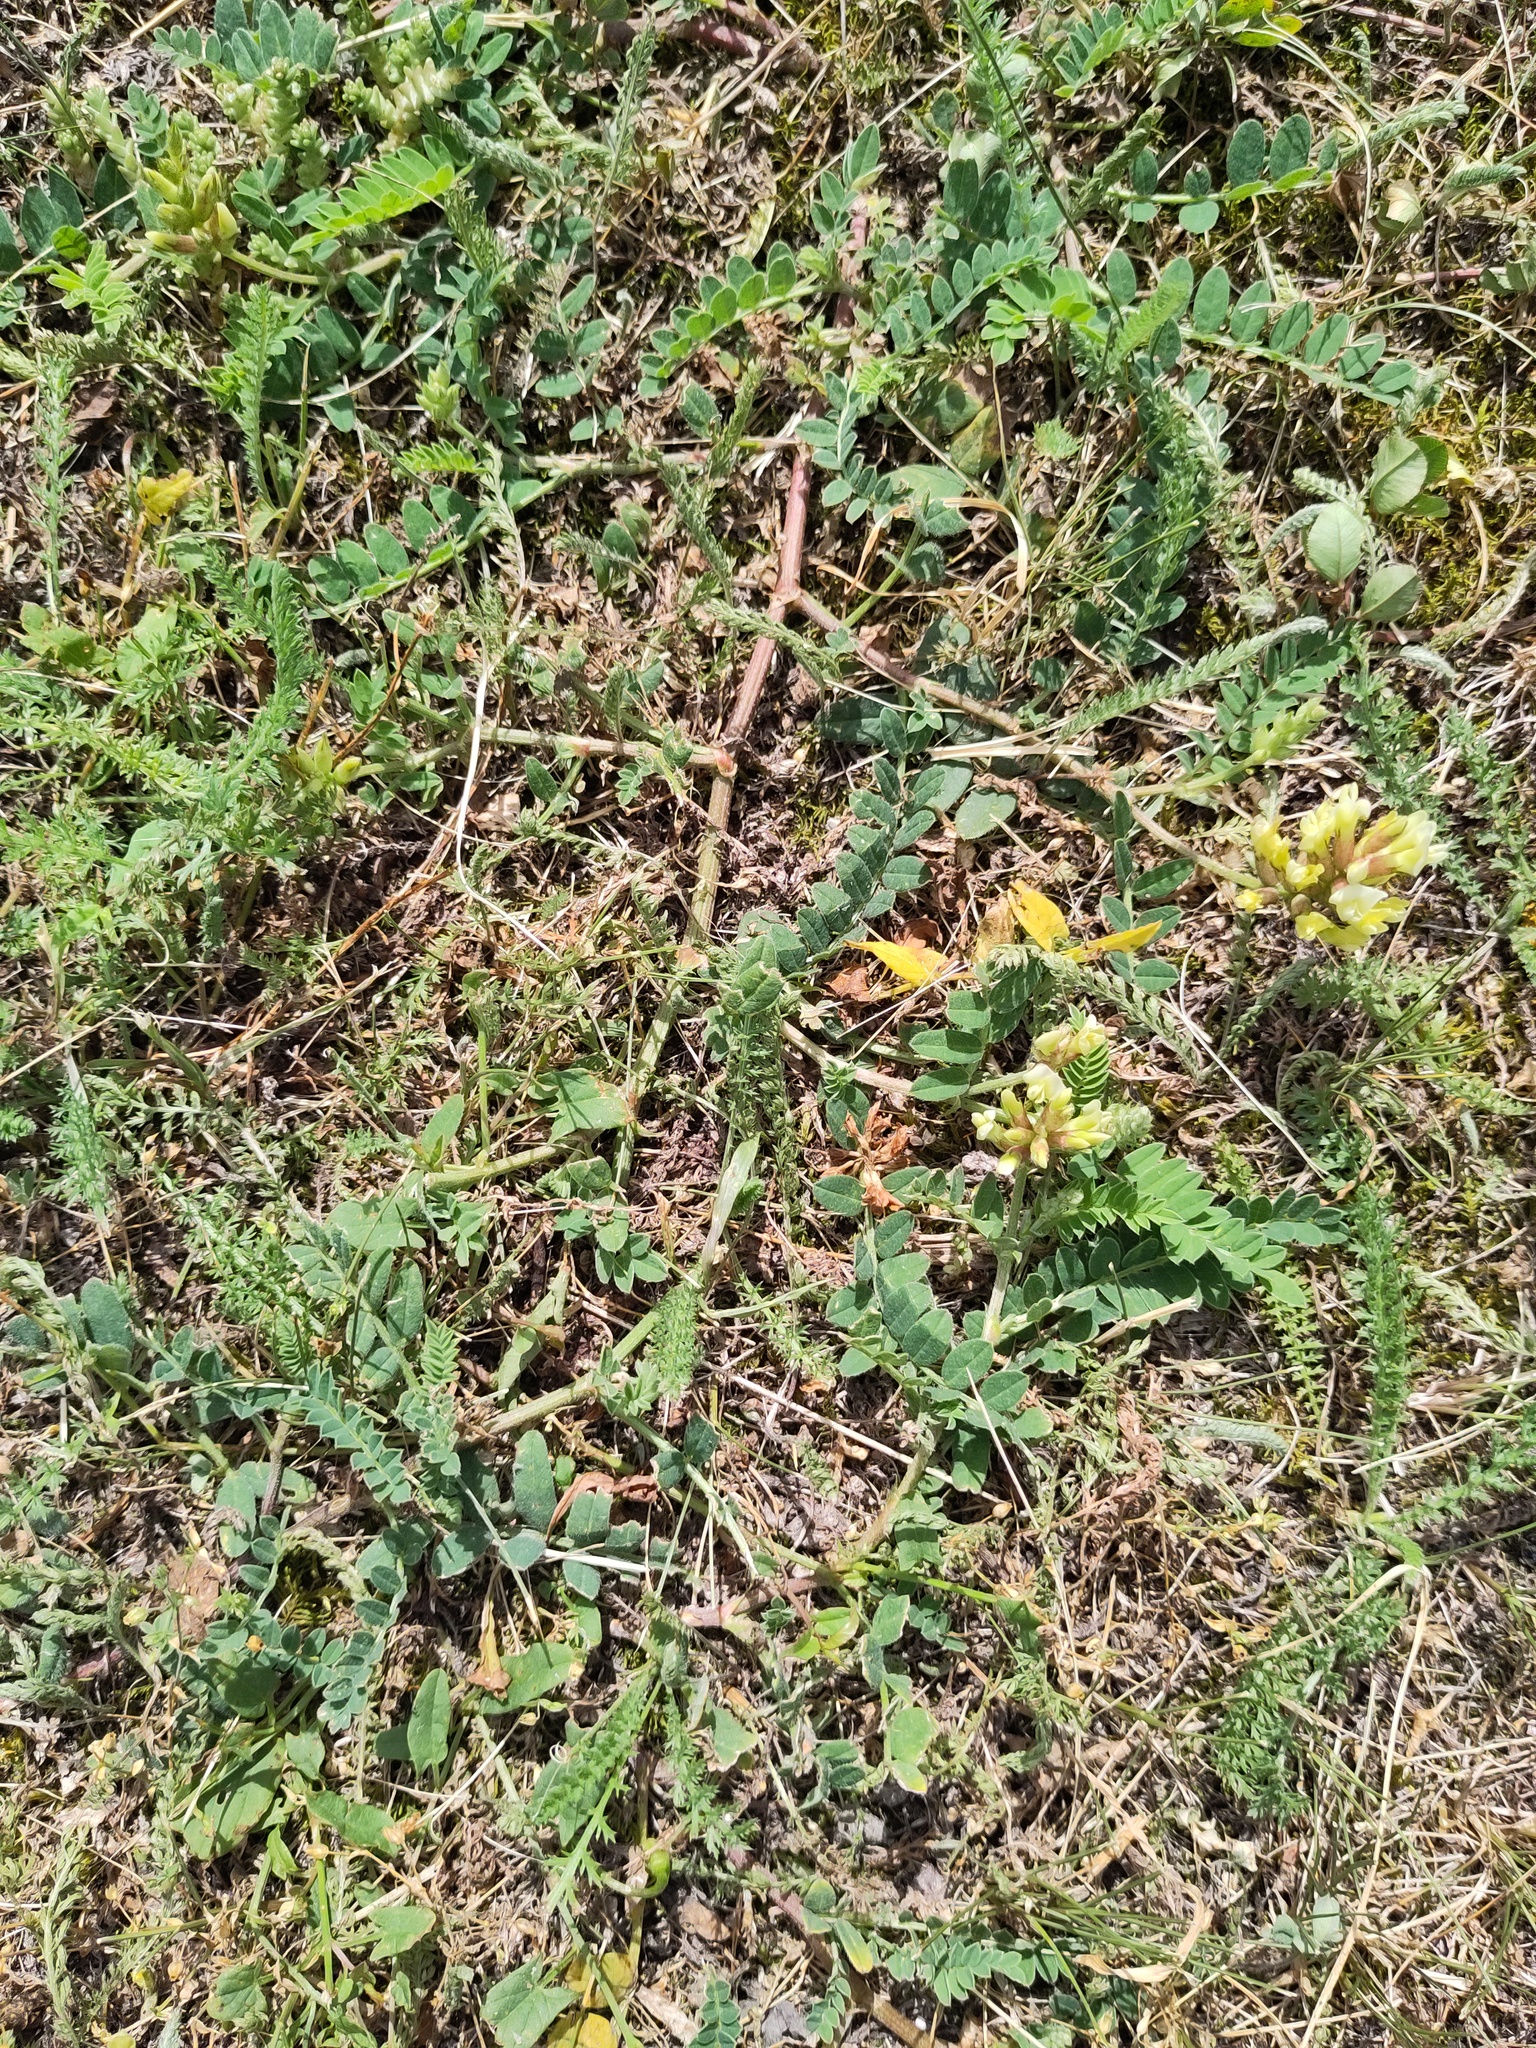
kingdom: Plantae
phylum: Tracheophyta
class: Magnoliopsida
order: Fabales
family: Fabaceae
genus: Astragalus
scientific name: Astragalus cicer
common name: Chick-pea milk-vetch
